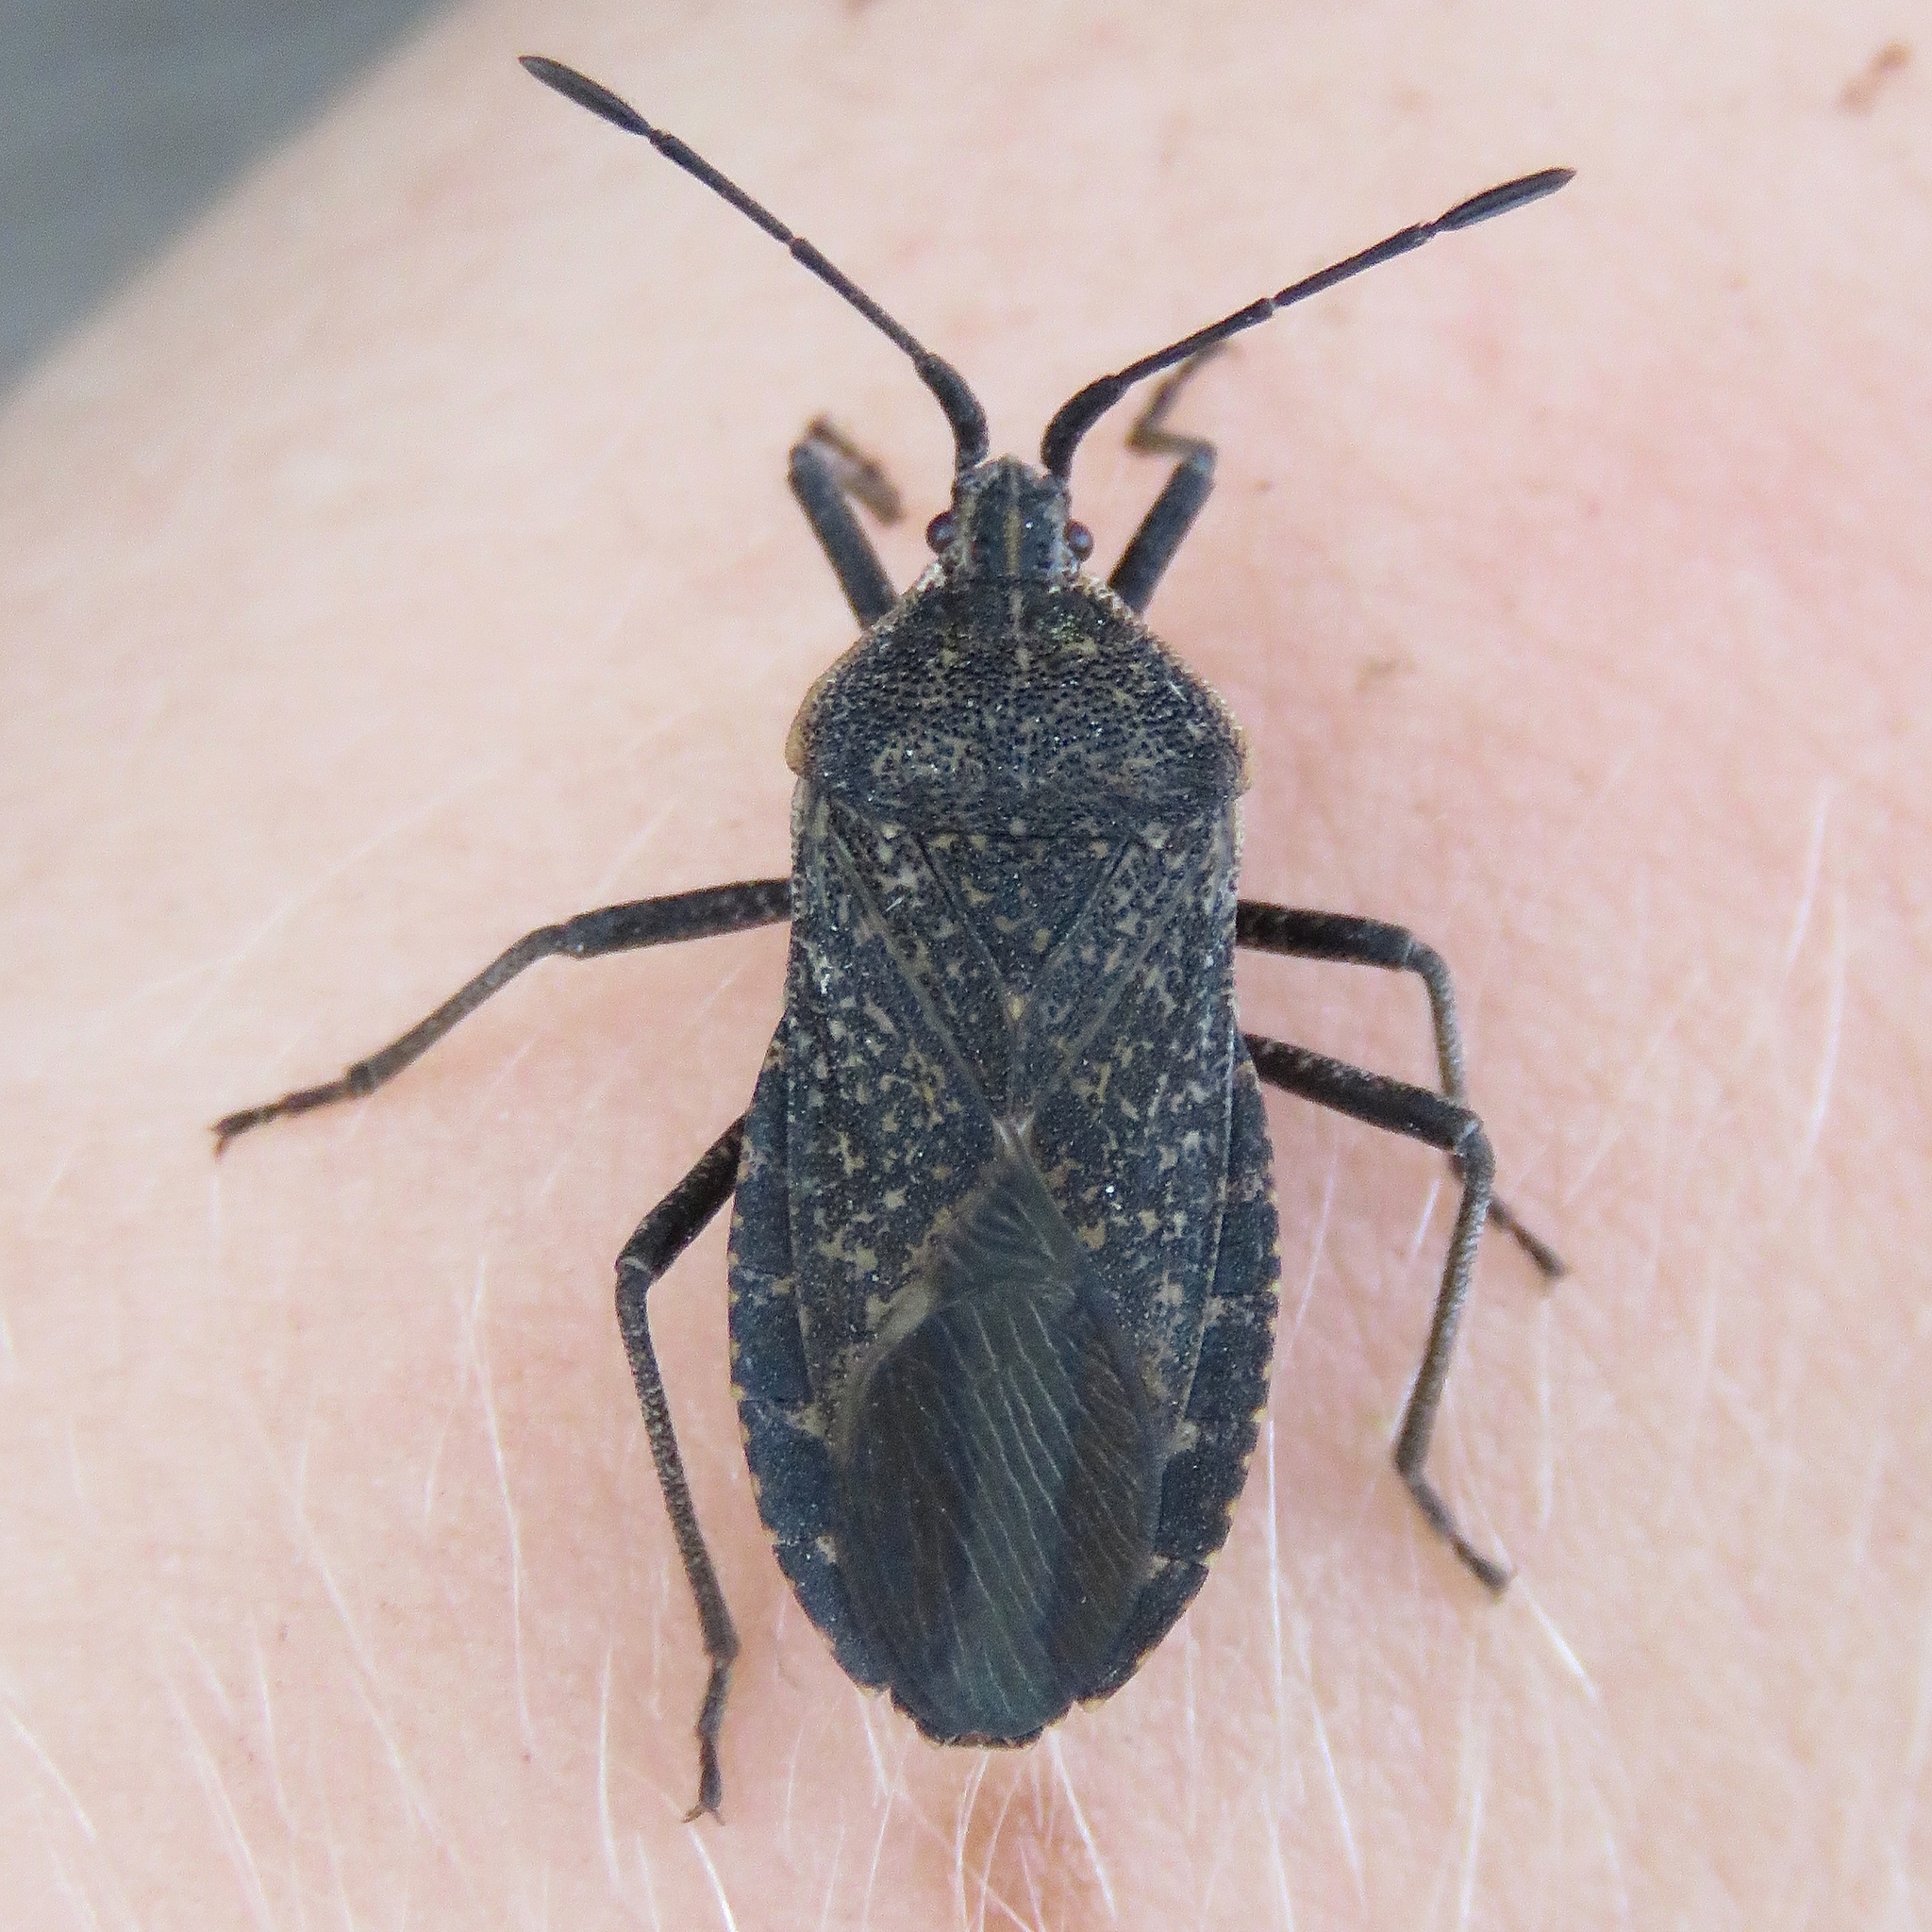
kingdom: Animalia
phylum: Arthropoda
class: Insecta
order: Hemiptera
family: Coreidae
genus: Anasa
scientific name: Anasa tristis
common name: Squash bug
